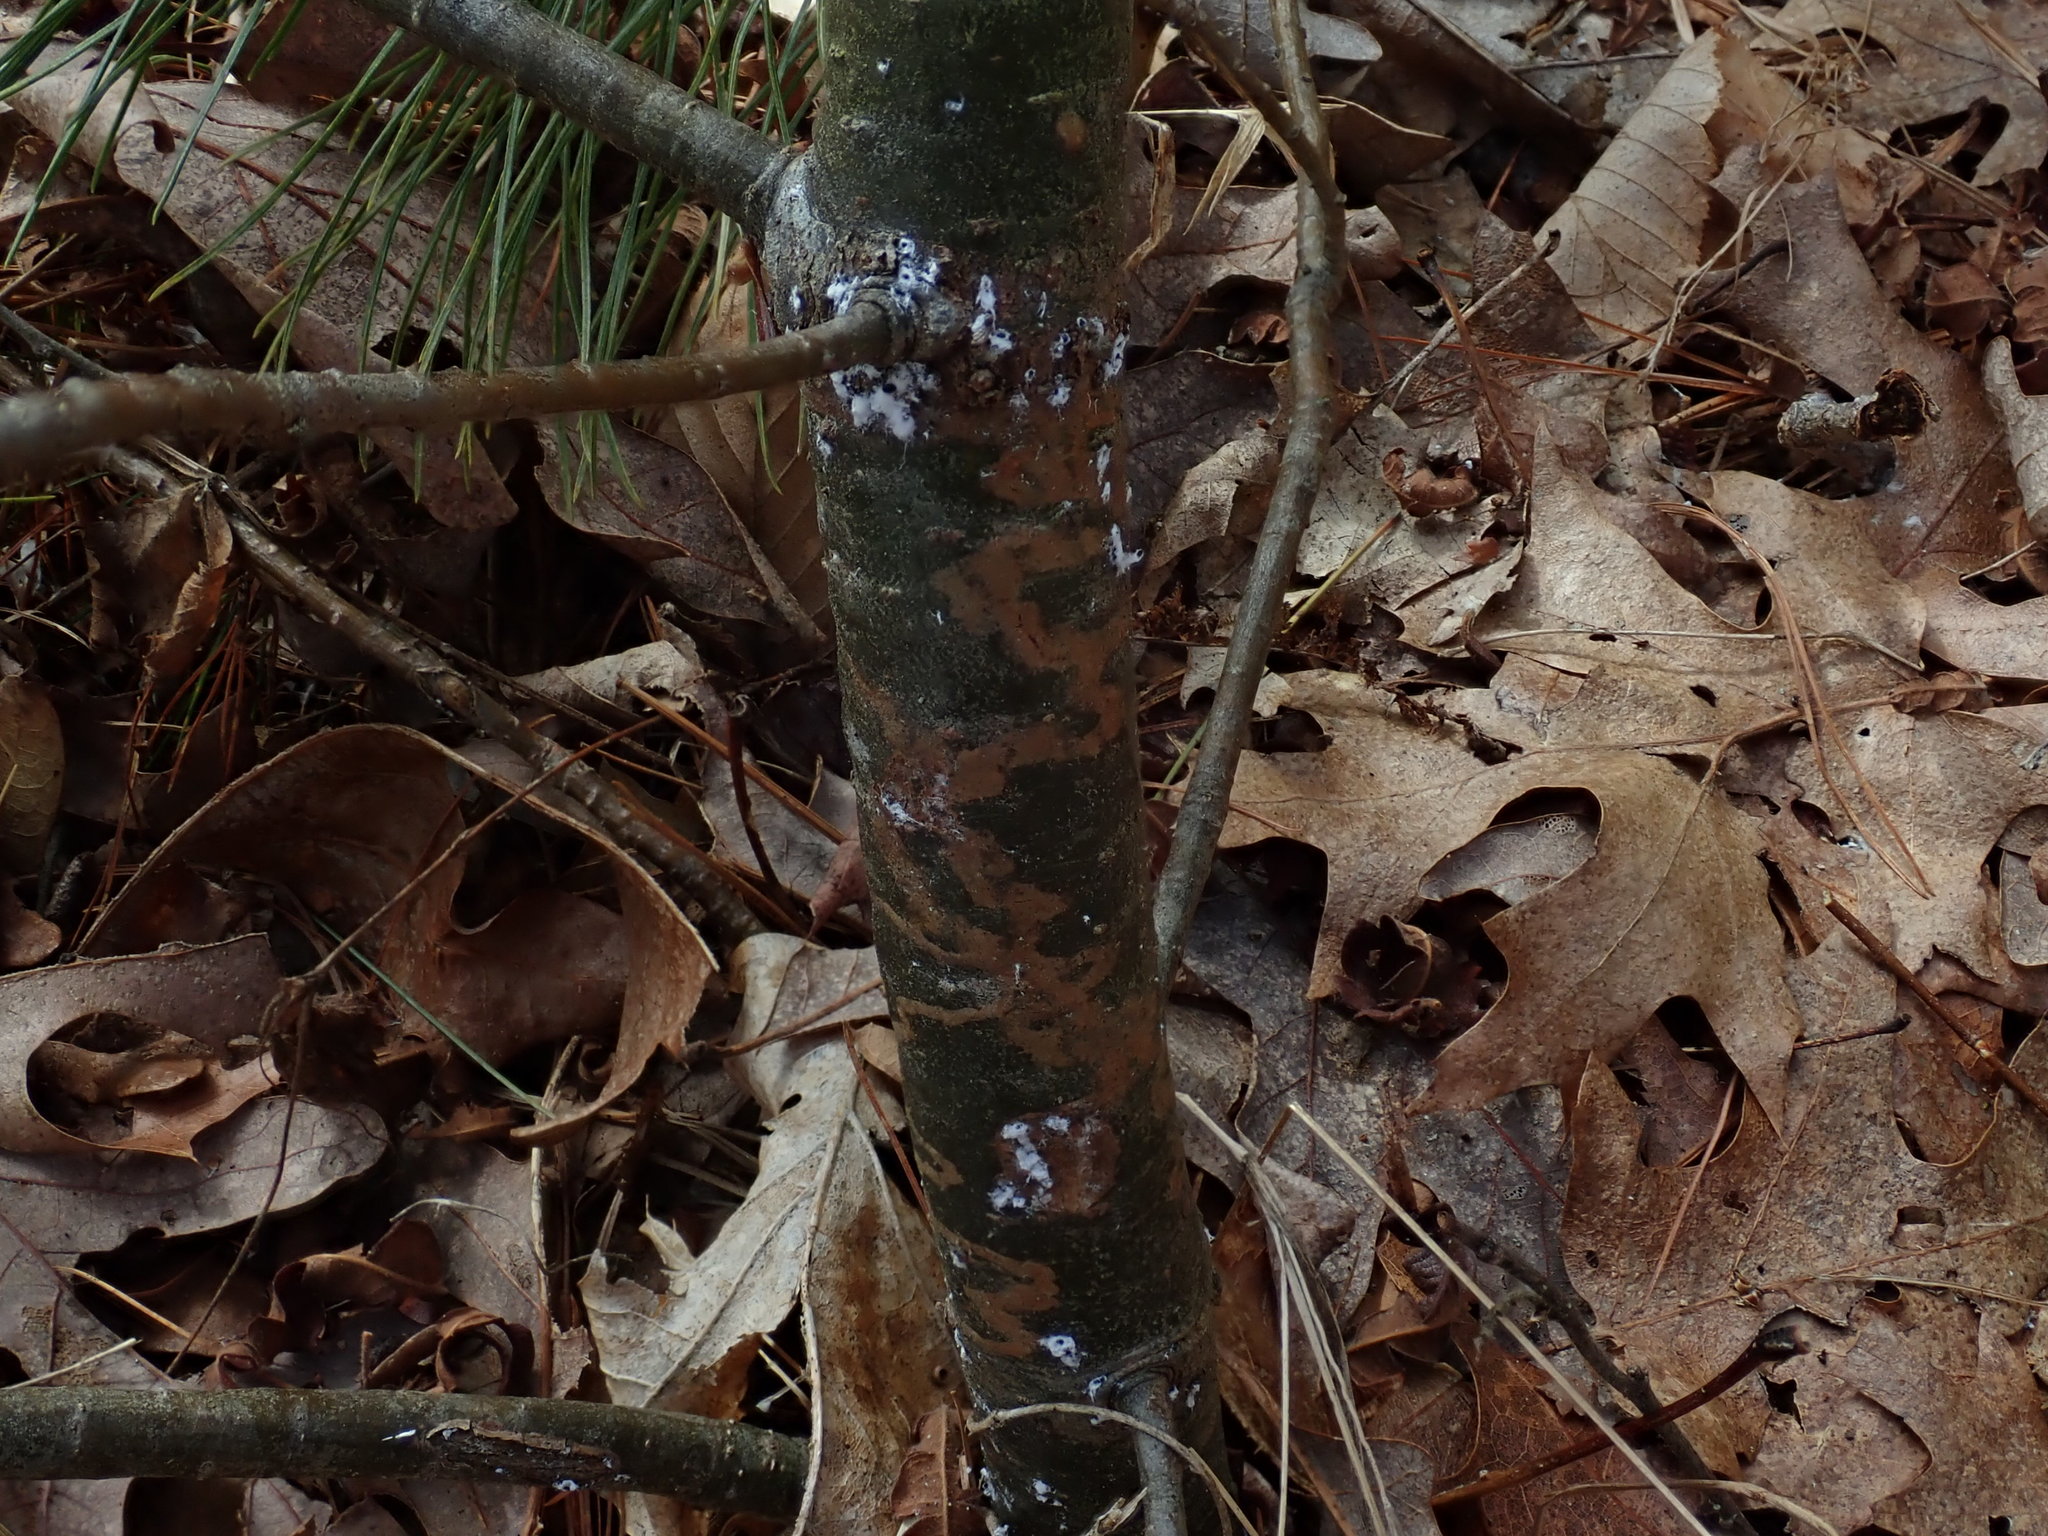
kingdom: Animalia
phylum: Arthropoda
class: Insecta
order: Lepidoptera
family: Gracillariidae
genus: Marmara
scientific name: Marmara fasciella
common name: White pine barkminer moth
